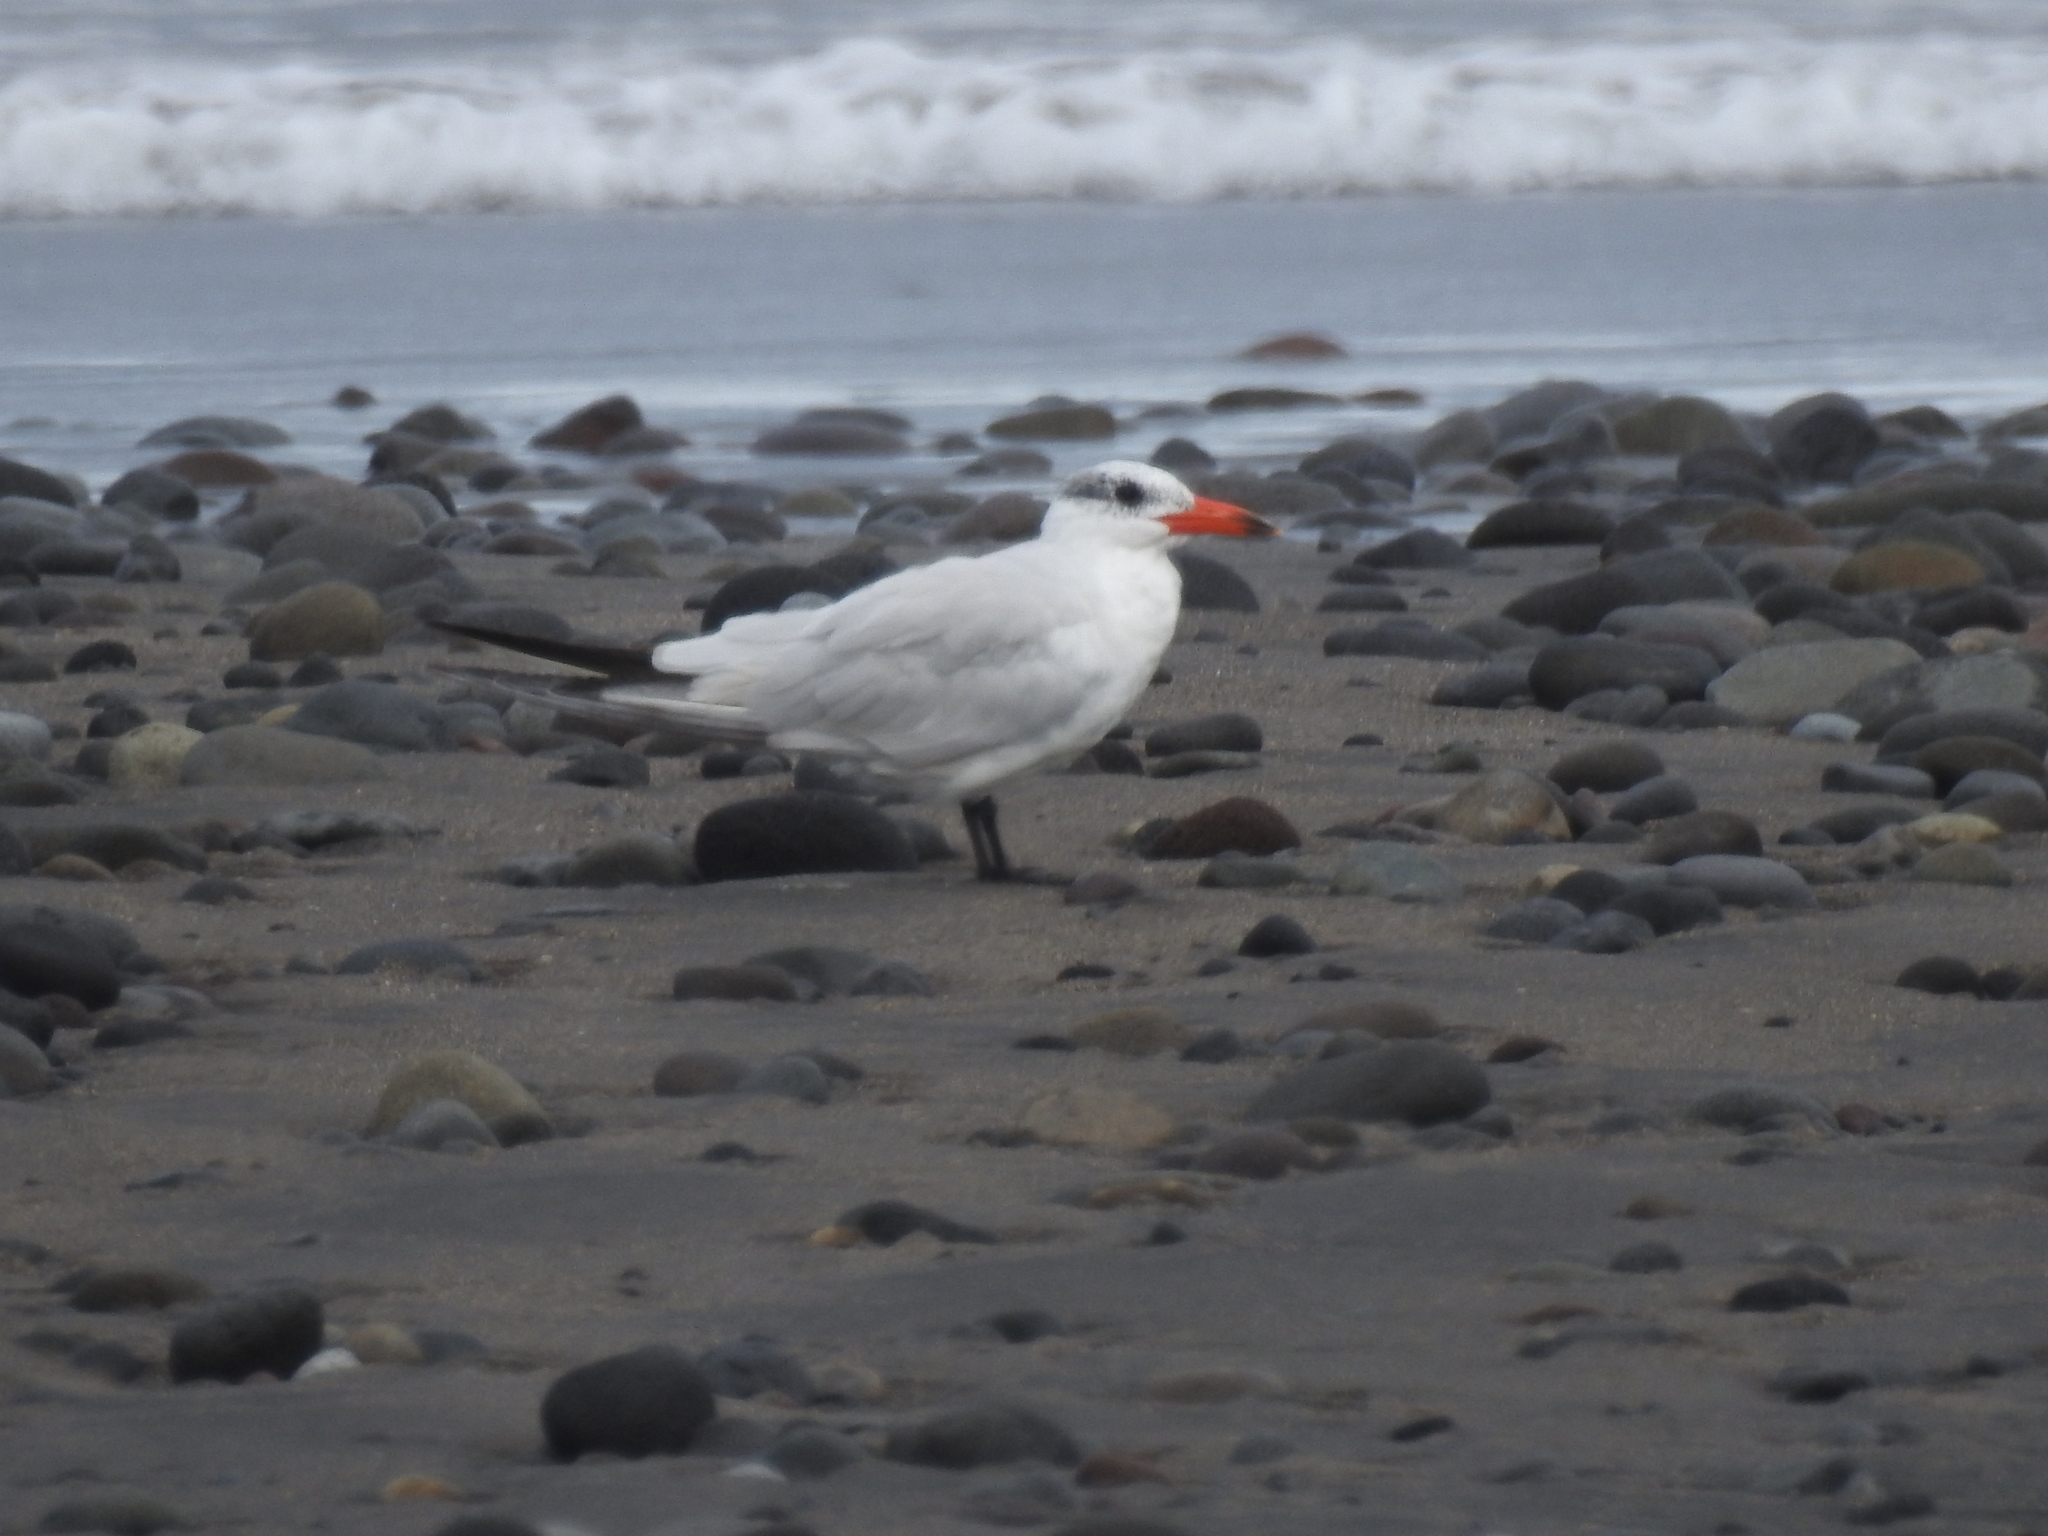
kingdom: Animalia
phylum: Chordata
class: Aves
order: Charadriiformes
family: Laridae
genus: Hydroprogne
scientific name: Hydroprogne caspia
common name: Caspian tern
